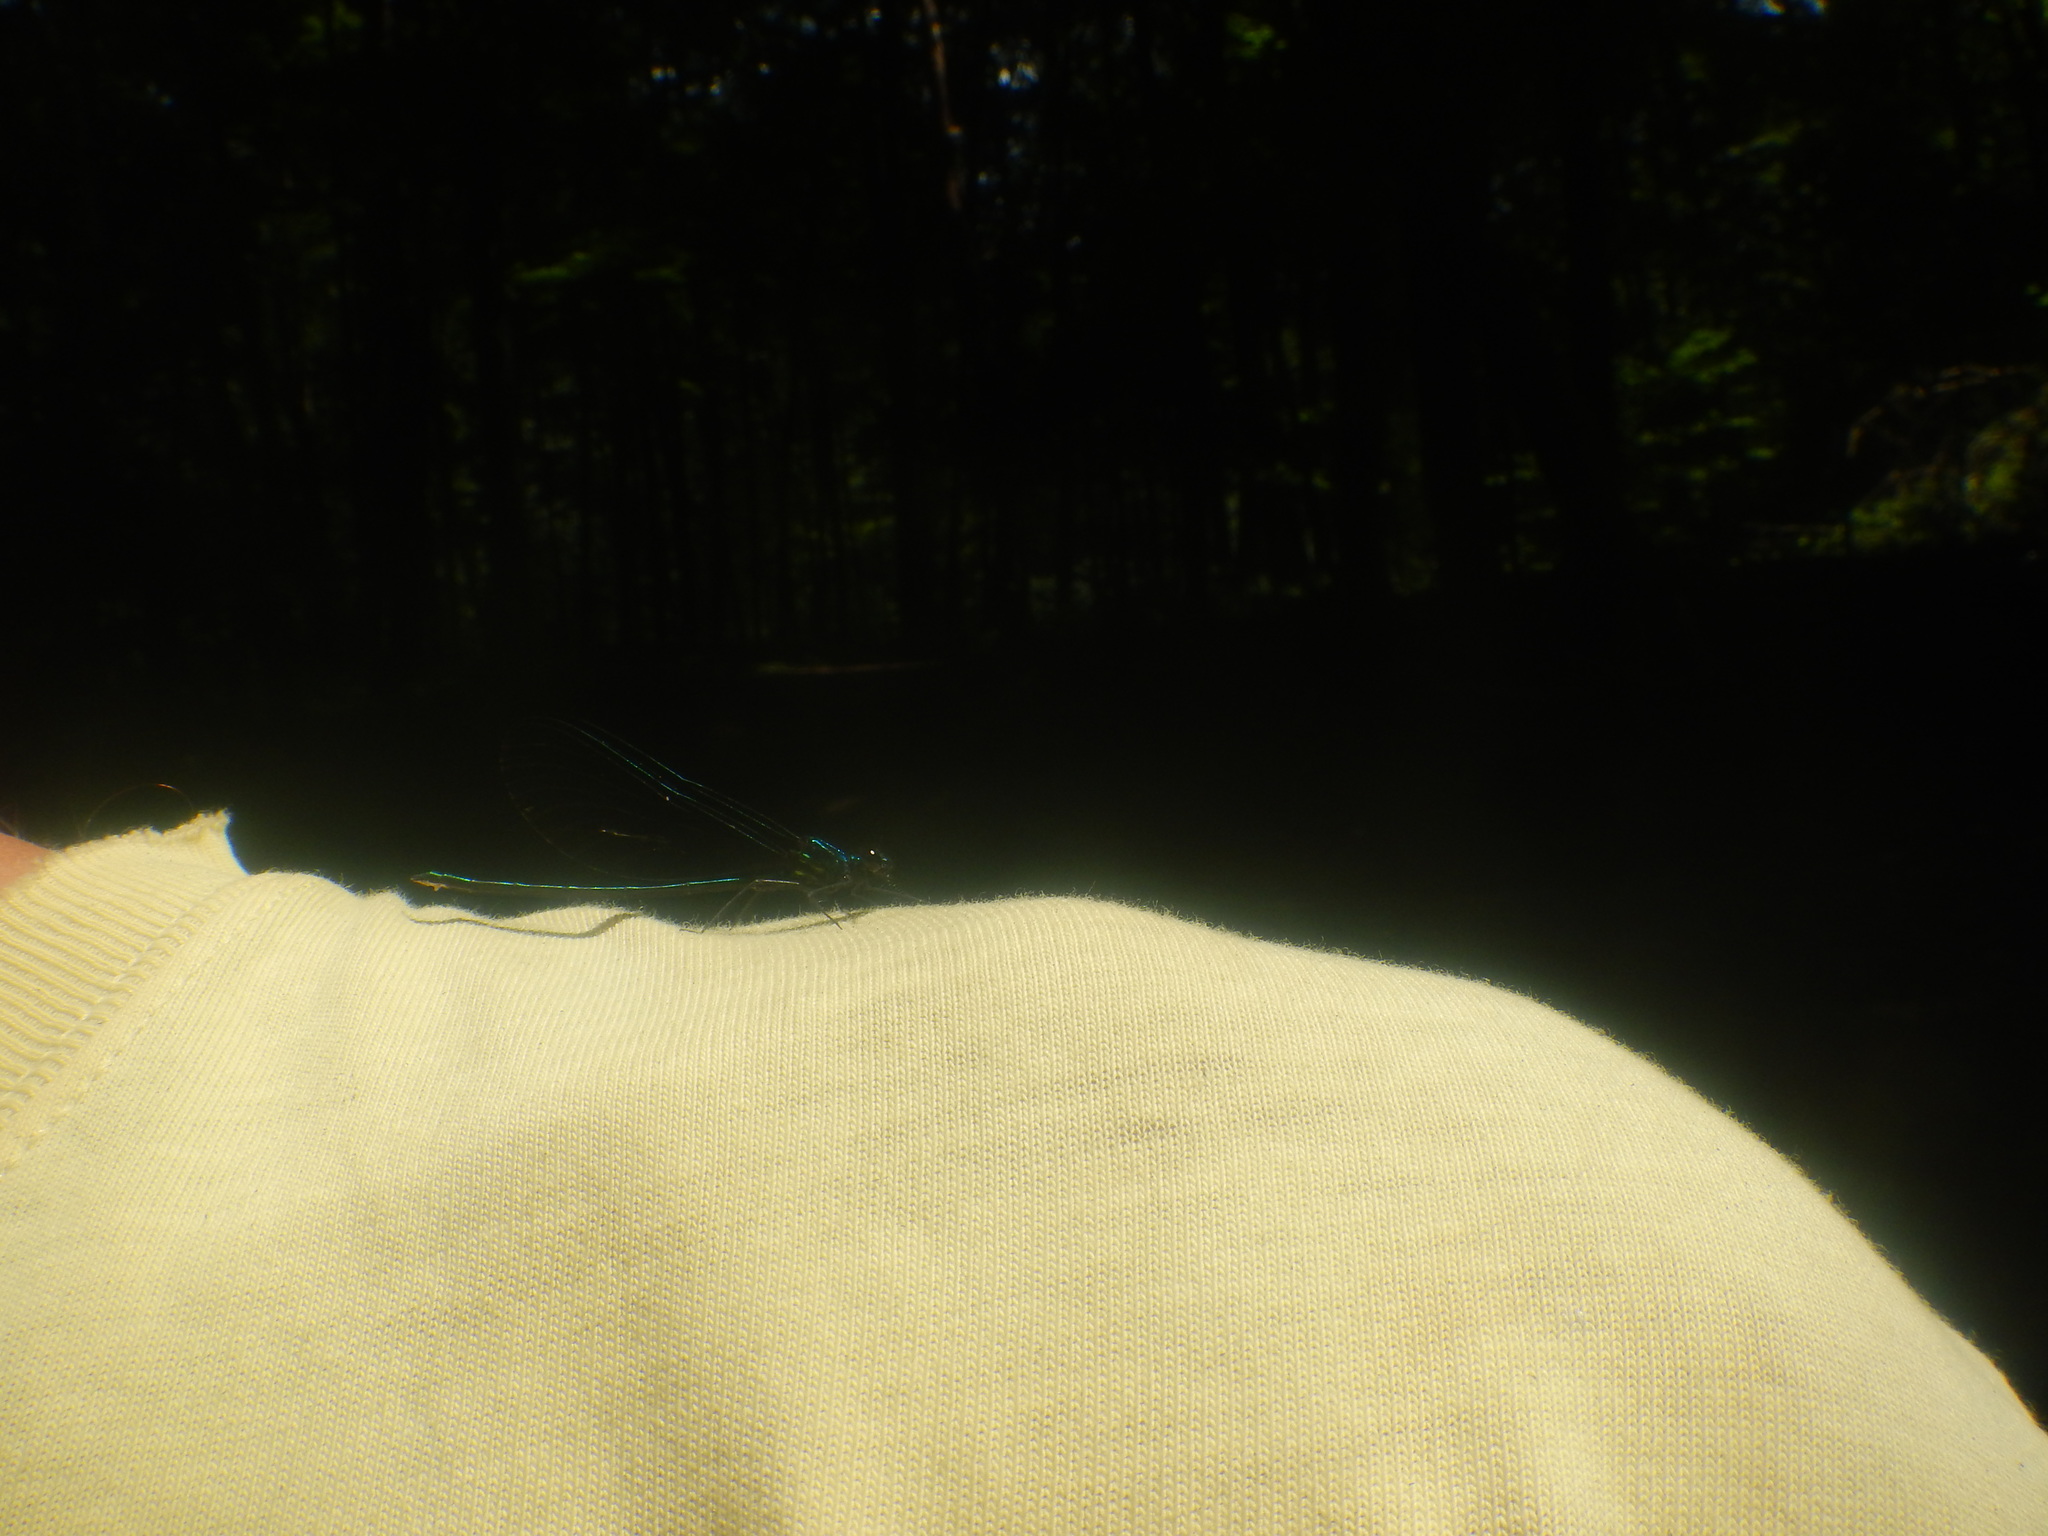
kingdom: Animalia
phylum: Arthropoda
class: Insecta
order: Odonata
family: Calopterygidae
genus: Calopteryx
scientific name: Calopteryx maculata
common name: Ebony jewelwing
